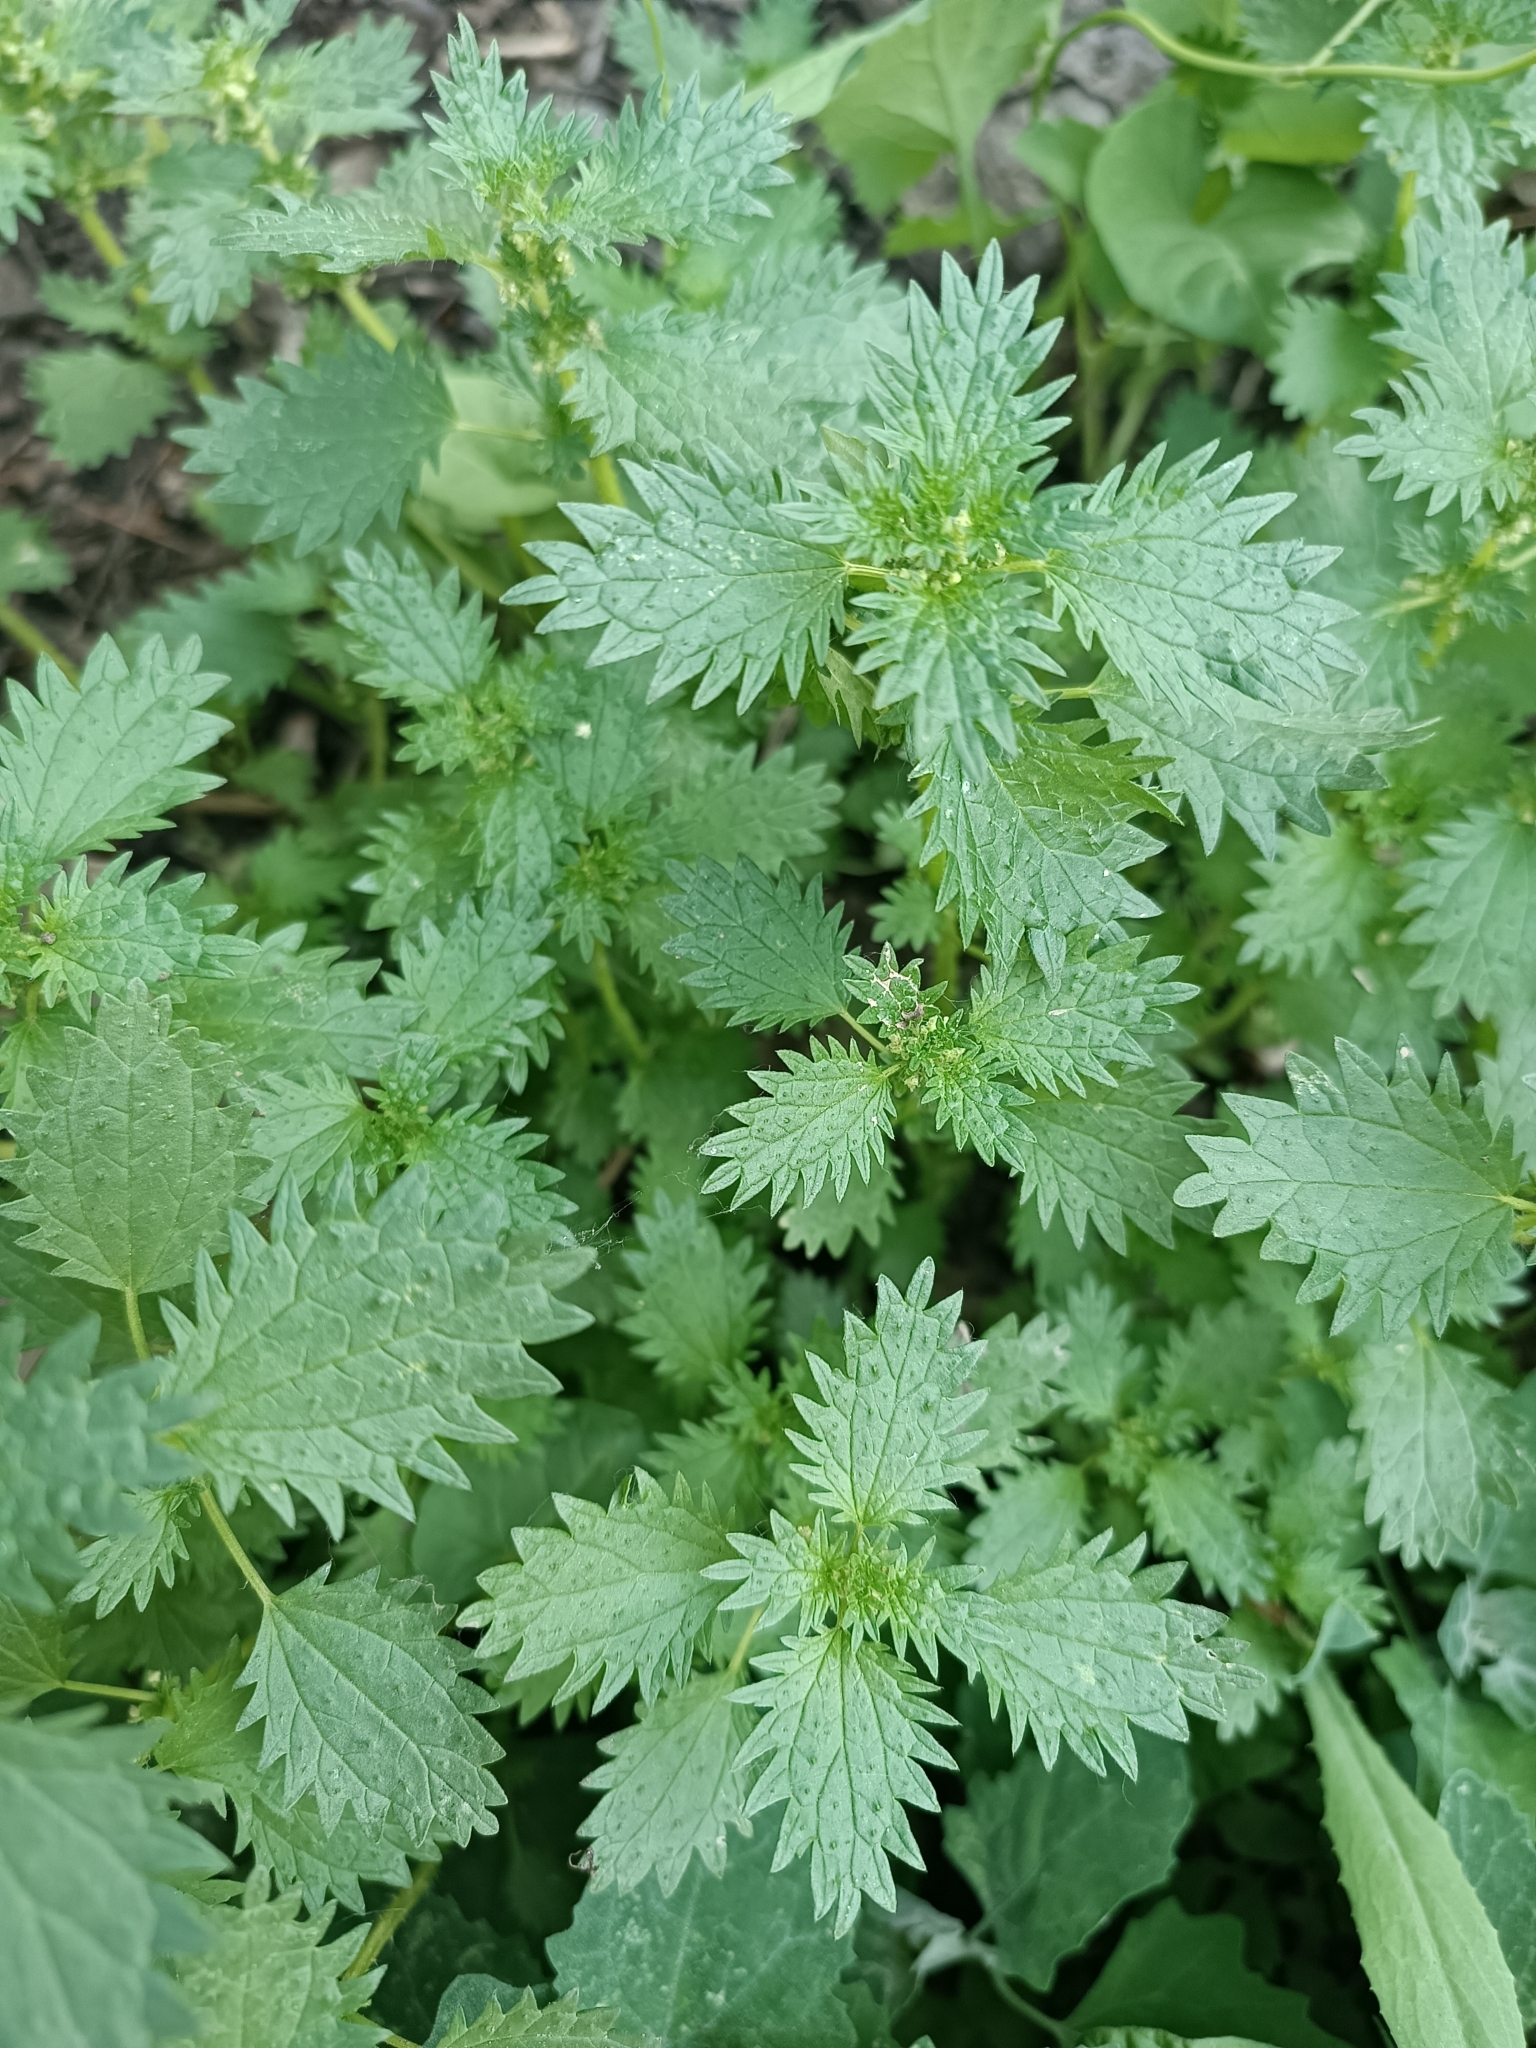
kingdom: Plantae
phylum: Tracheophyta
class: Magnoliopsida
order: Rosales
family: Urticaceae
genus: Urtica
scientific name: Urtica urens
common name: Dwarf nettle
